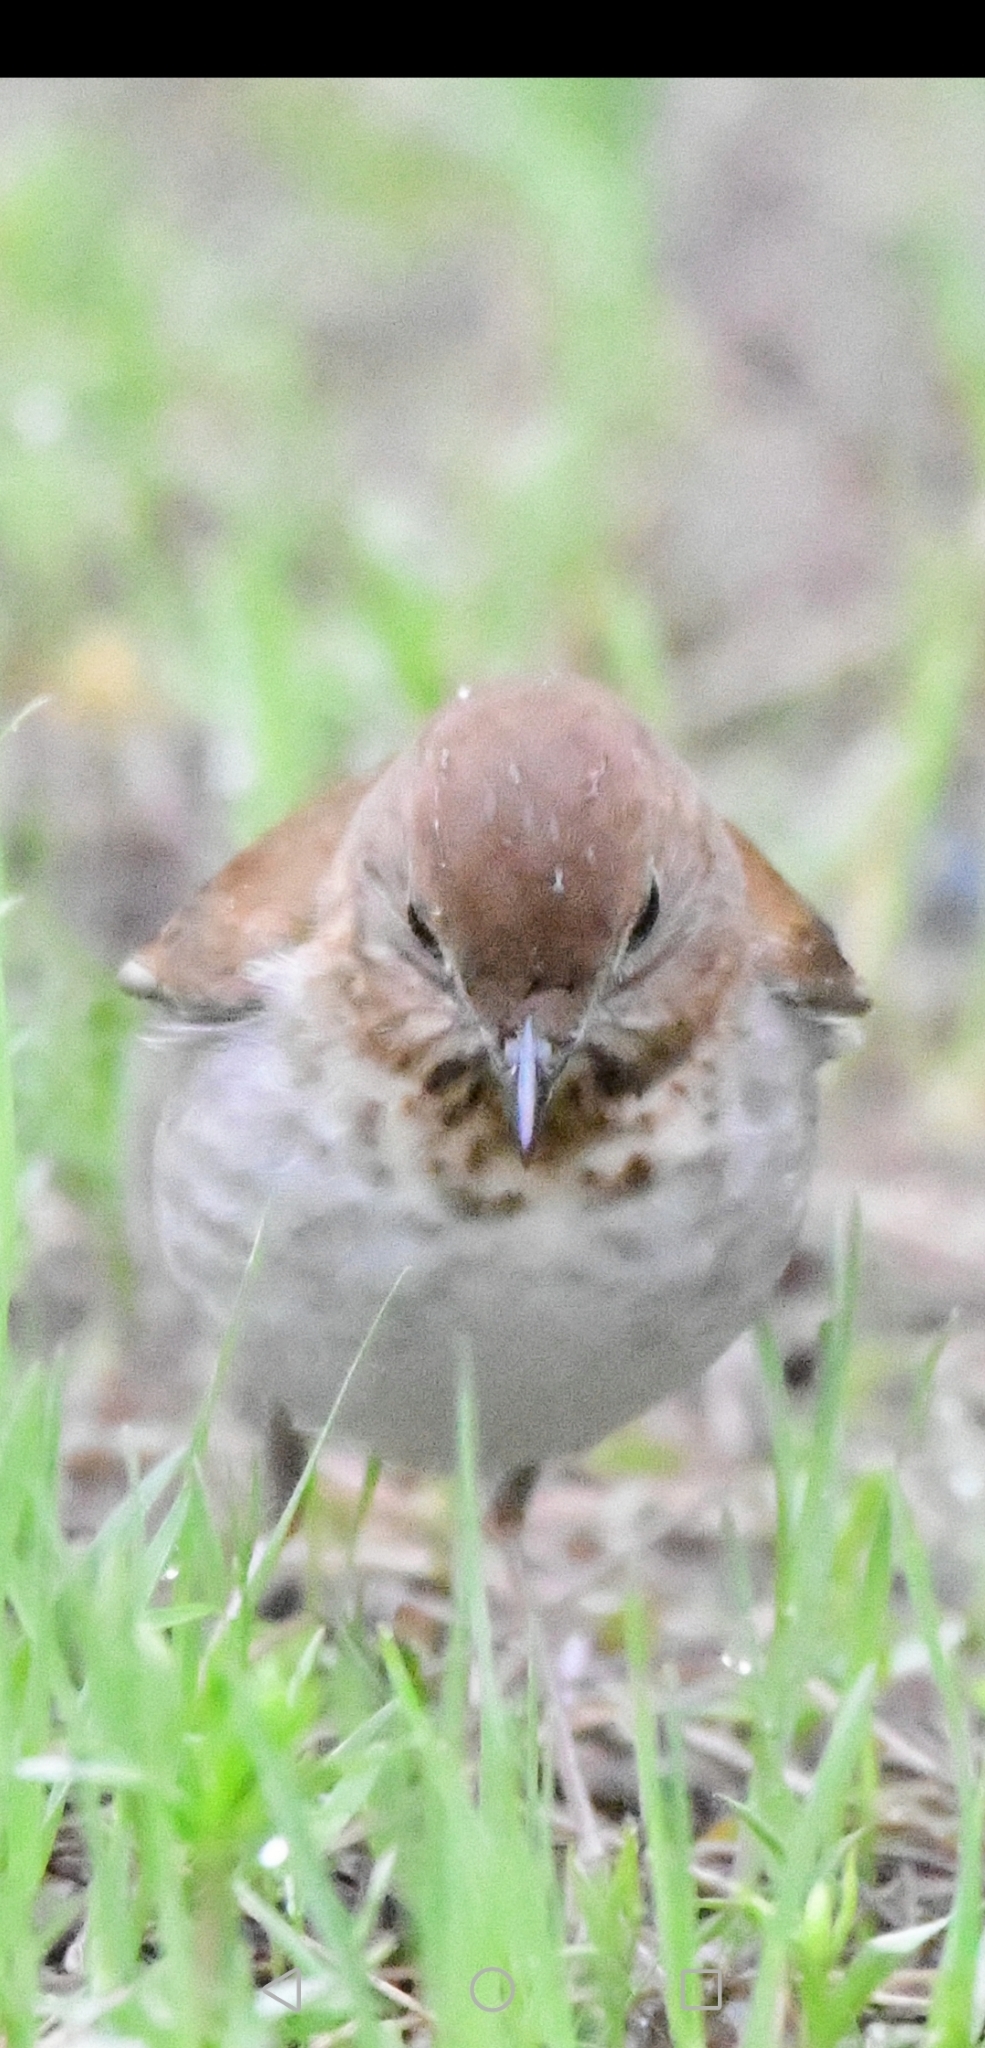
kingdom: Animalia
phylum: Chordata
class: Aves
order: Passeriformes
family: Turdidae
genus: Catharus
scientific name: Catharus fuscescens
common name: Veery
